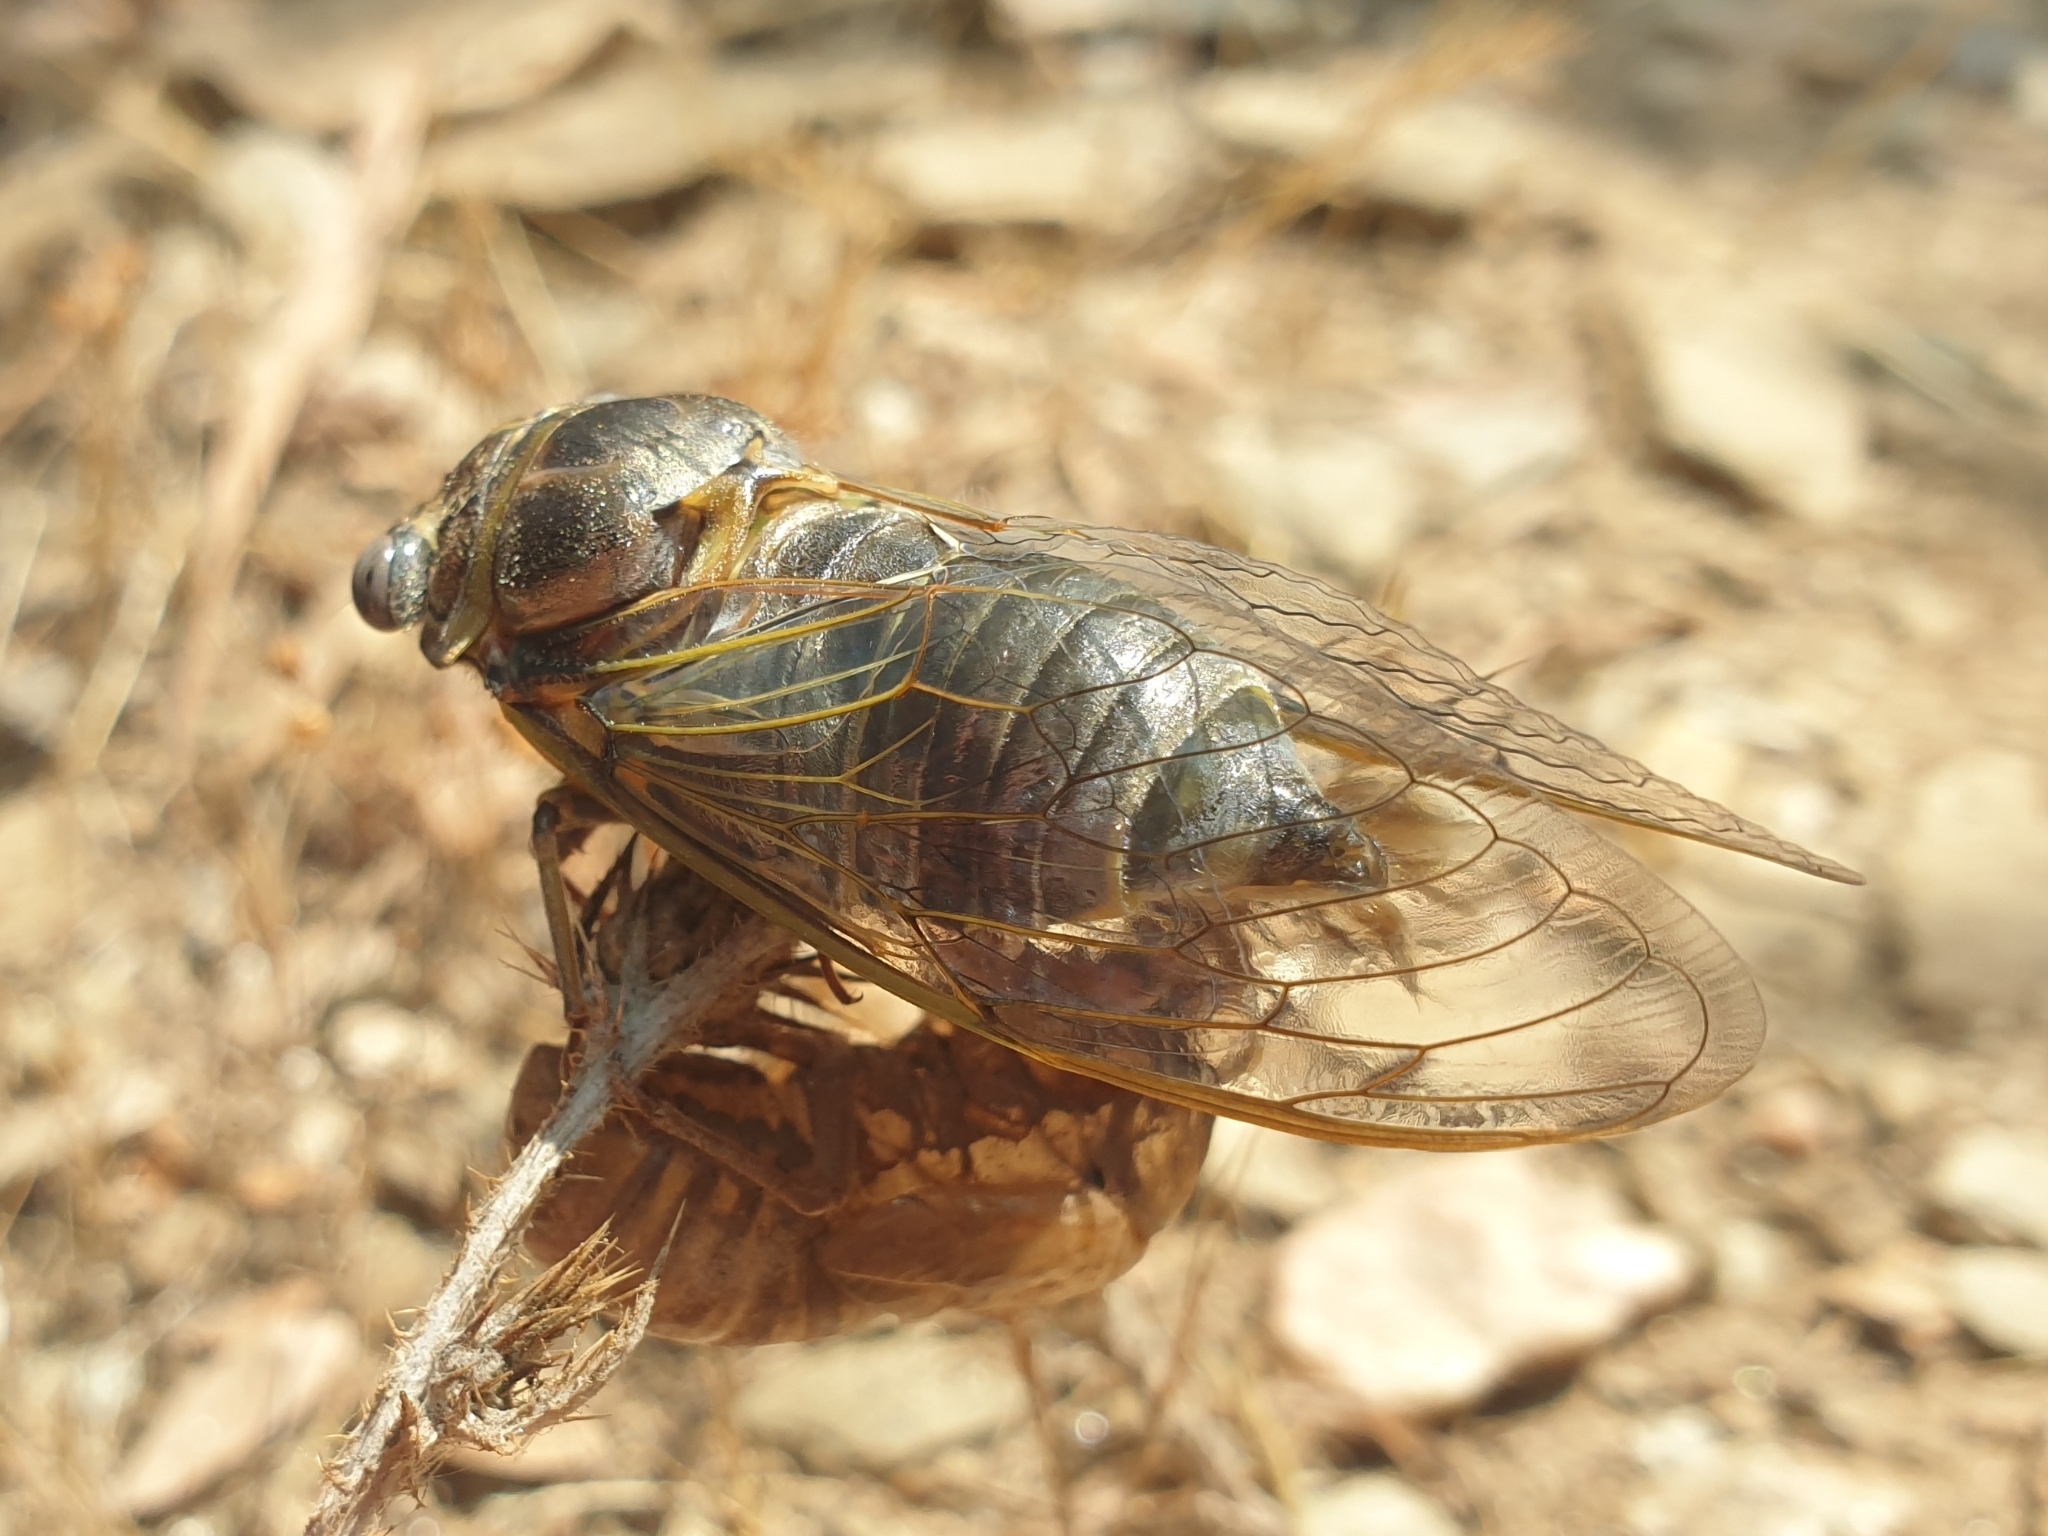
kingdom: Animalia
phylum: Arthropoda
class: Insecta
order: Hemiptera
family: Cicadidae
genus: Lyristes
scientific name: Lyristes plebejus
